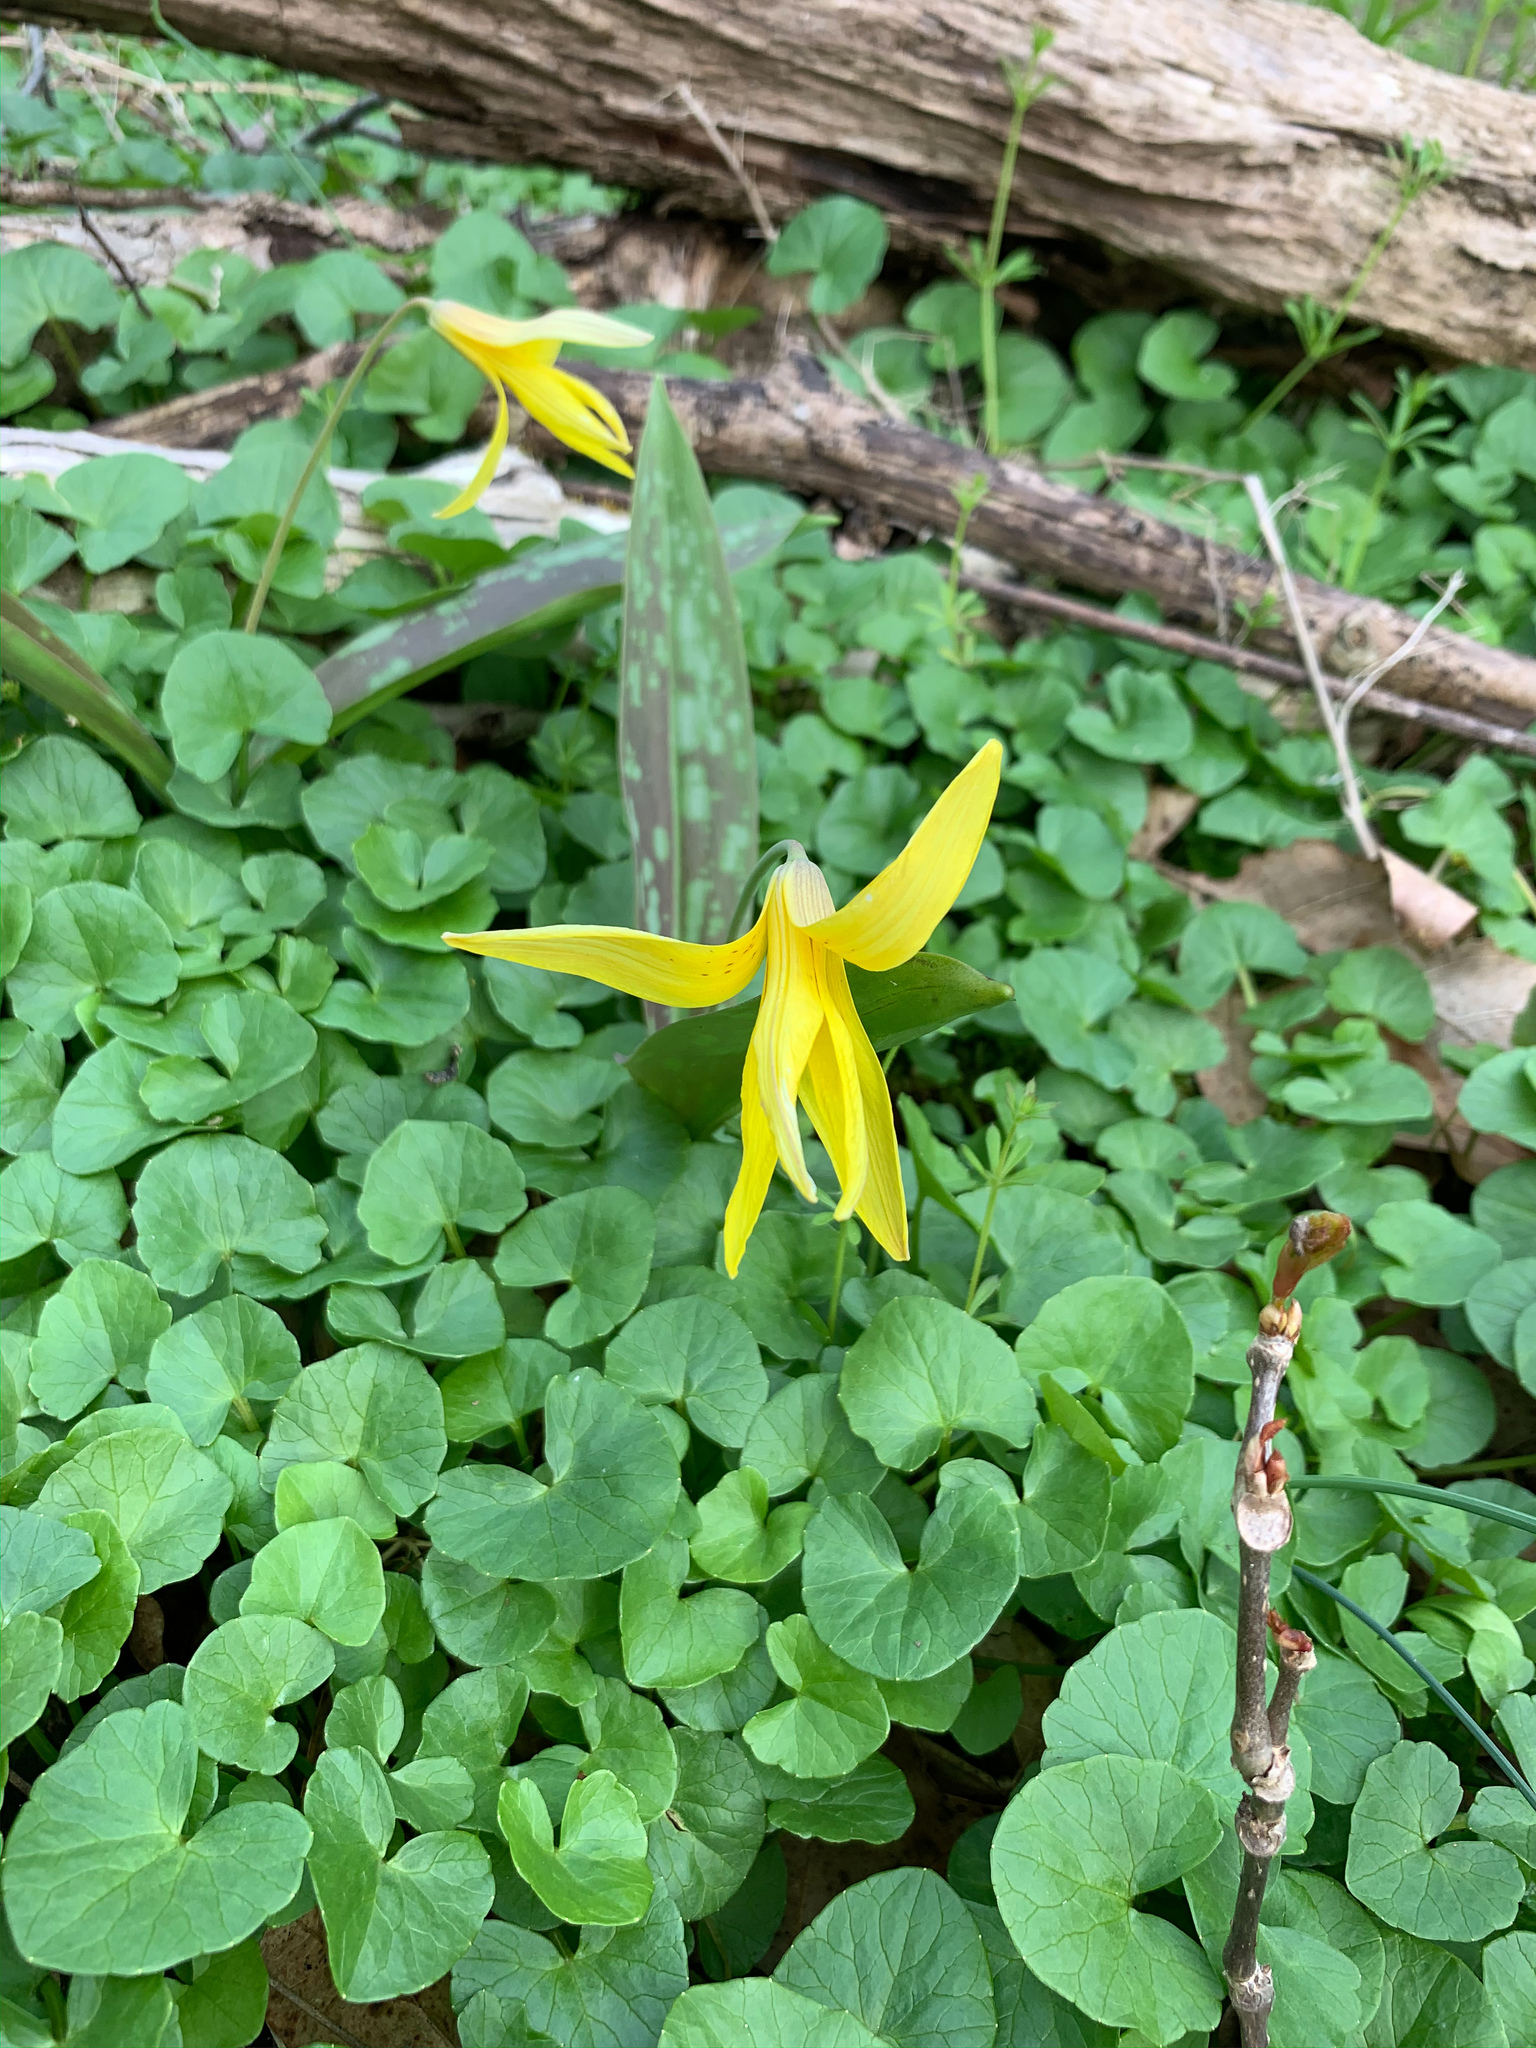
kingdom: Plantae
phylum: Tracheophyta
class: Liliopsida
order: Liliales
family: Liliaceae
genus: Erythronium
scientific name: Erythronium americanum
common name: Yellow adder's-tongue
